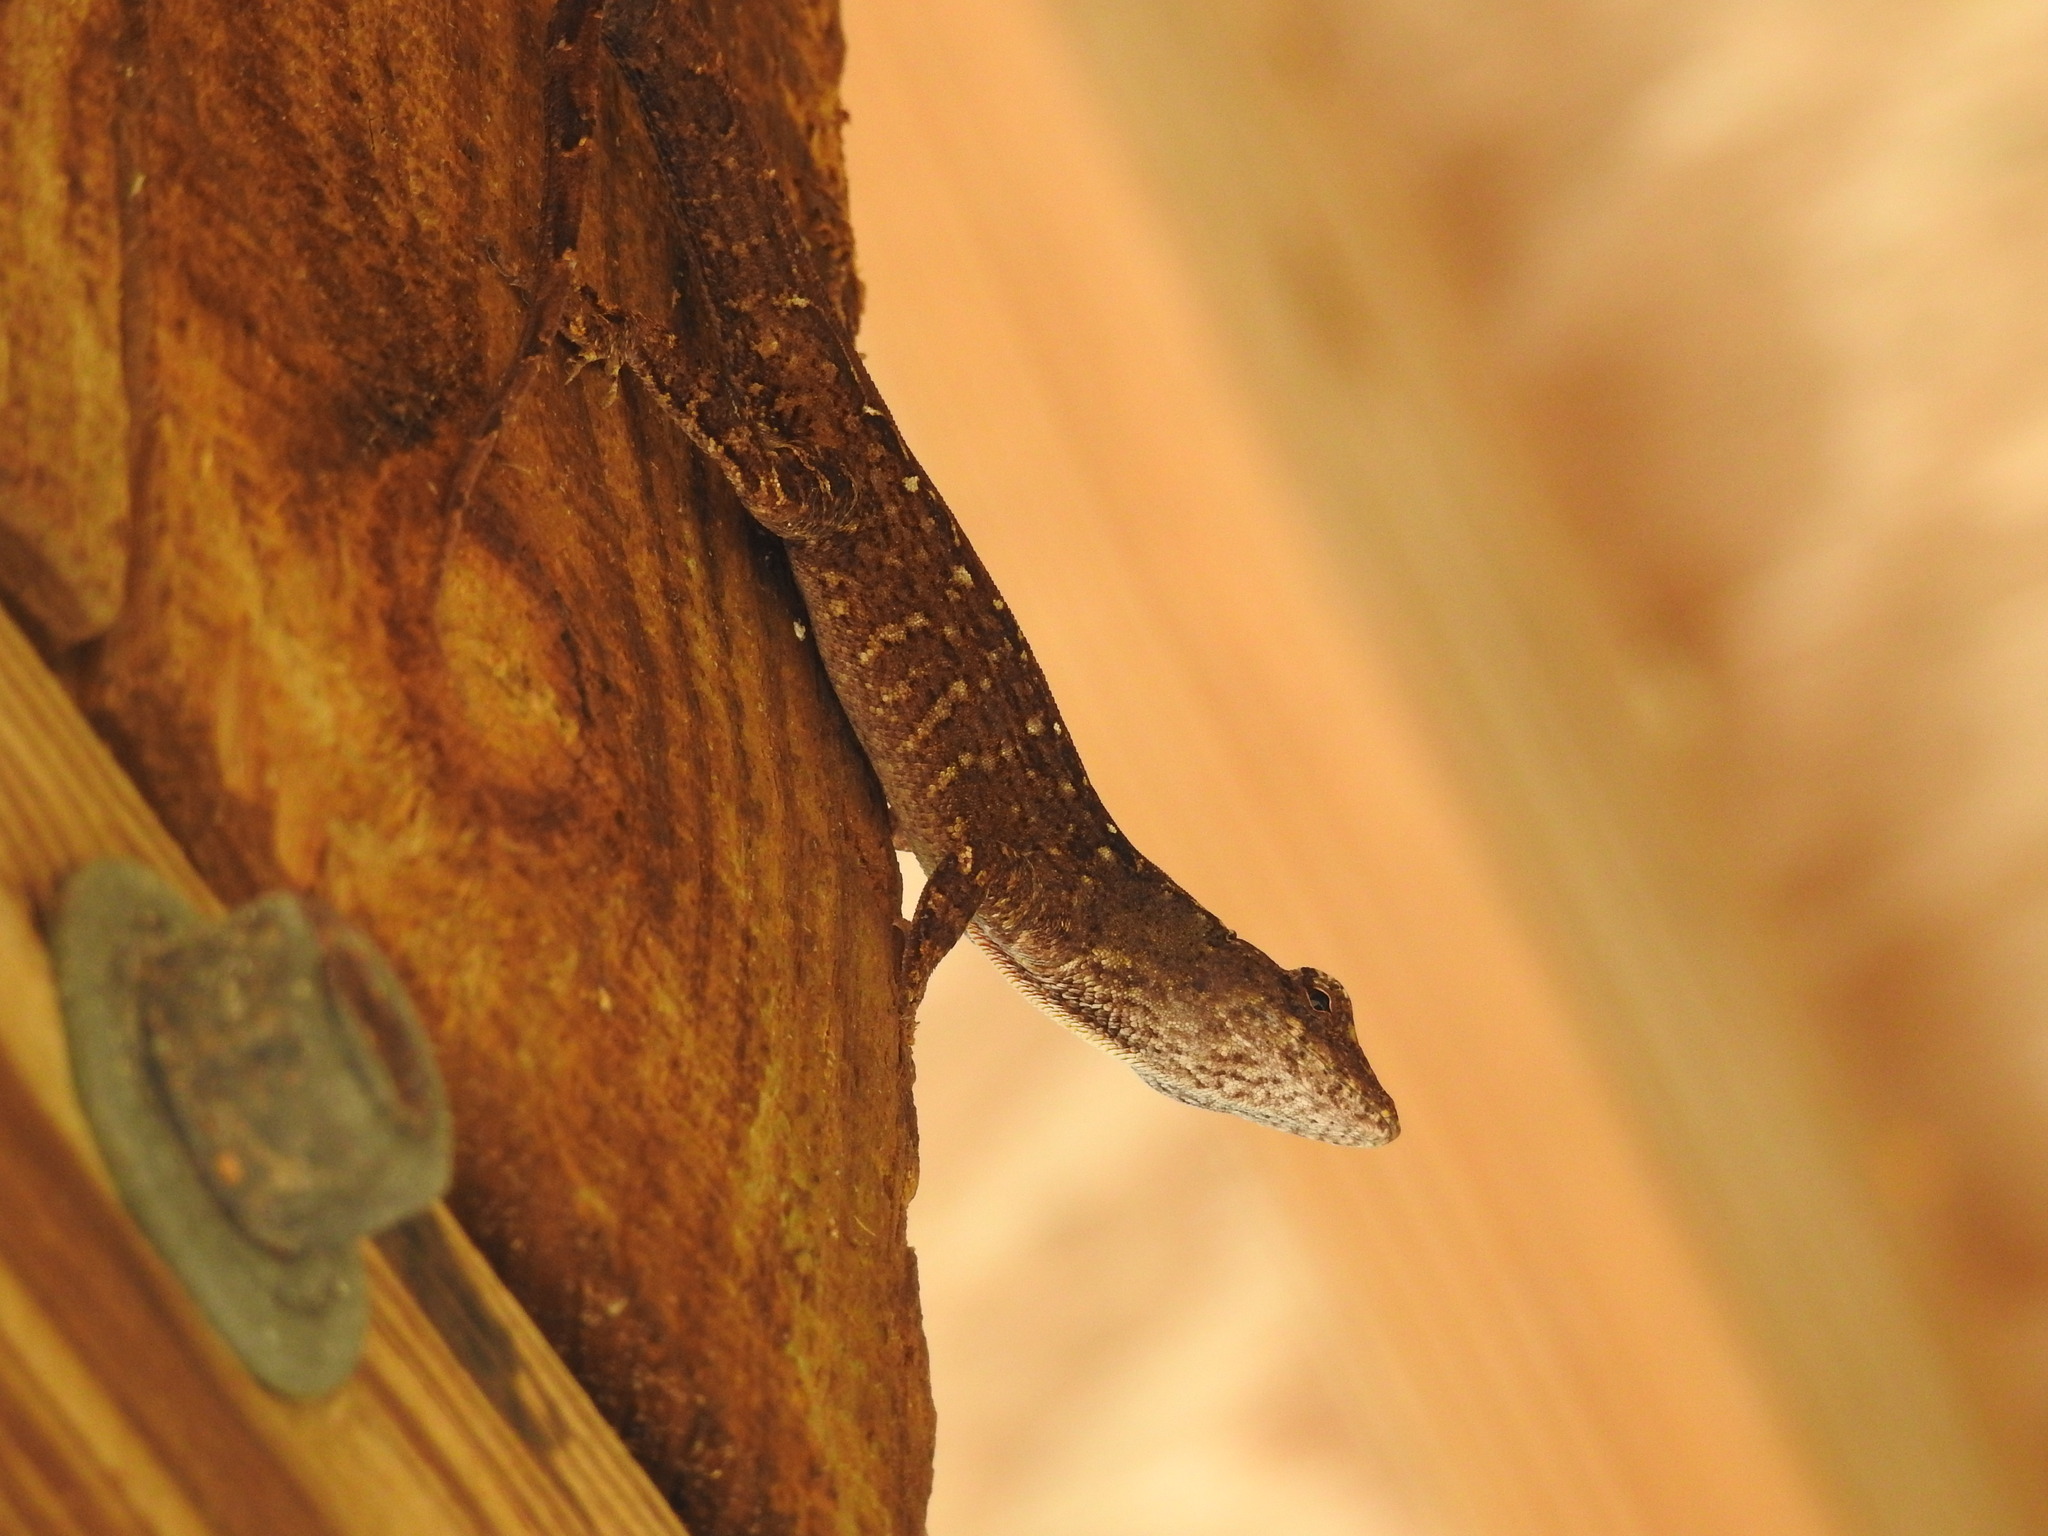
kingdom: Animalia
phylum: Chordata
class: Squamata
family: Dactyloidae
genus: Anolis
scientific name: Anolis sagrei
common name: Brown anole
